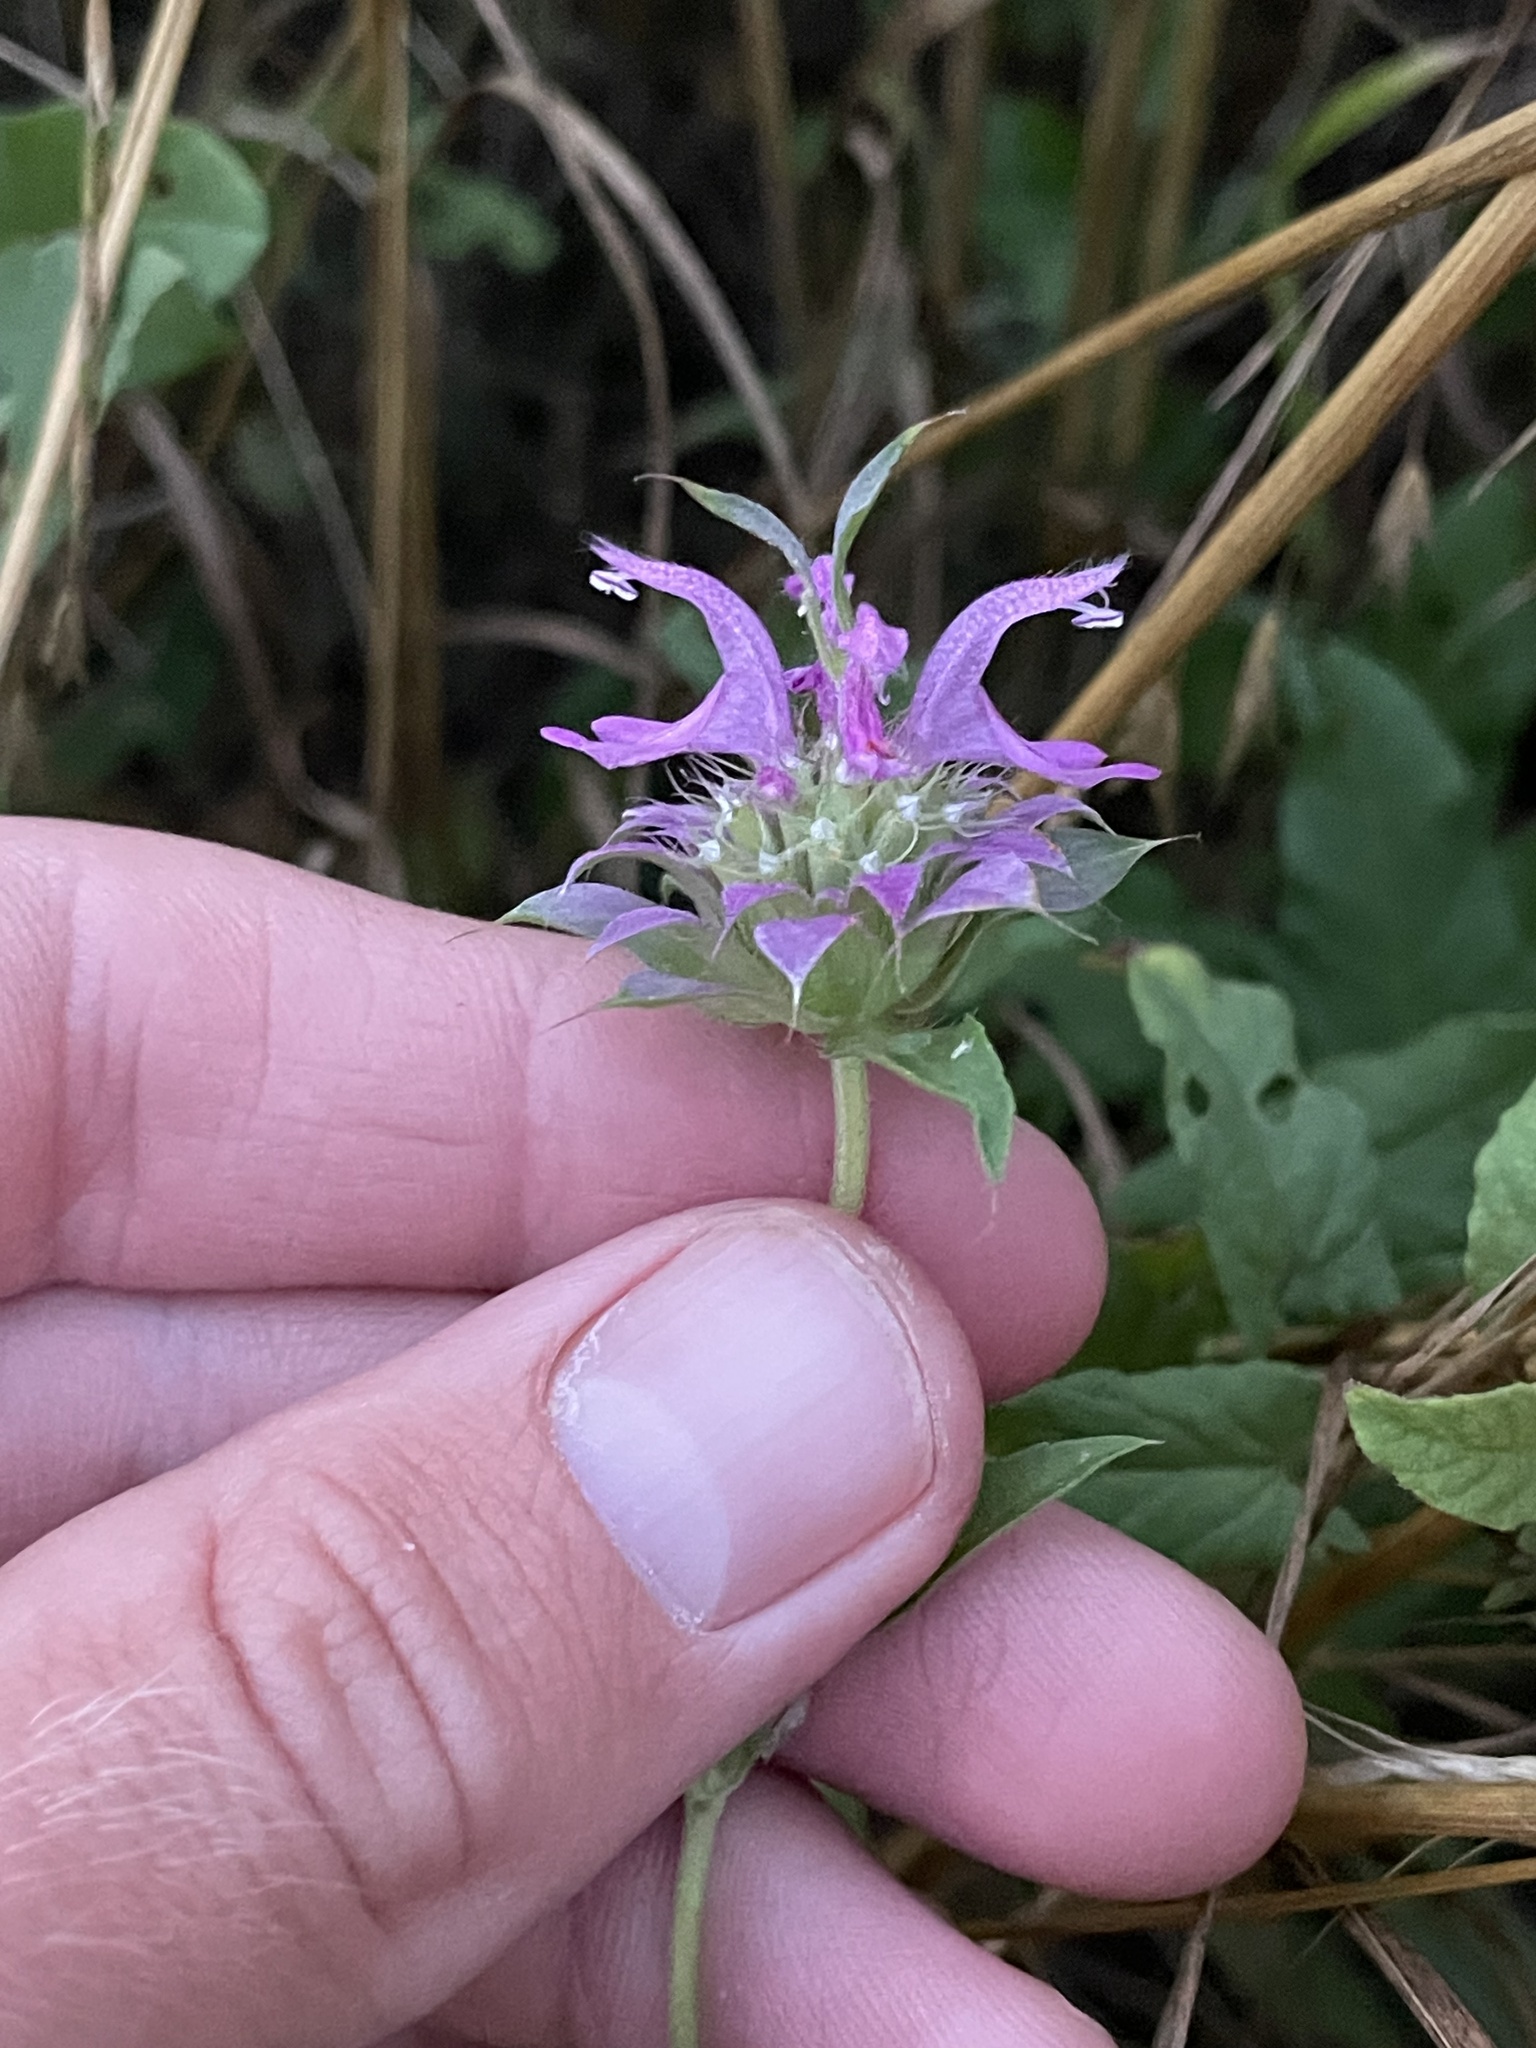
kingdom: Plantae
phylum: Tracheophyta
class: Magnoliopsida
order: Lamiales
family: Lamiaceae
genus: Monarda
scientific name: Monarda citriodora
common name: Lemon beebalm
